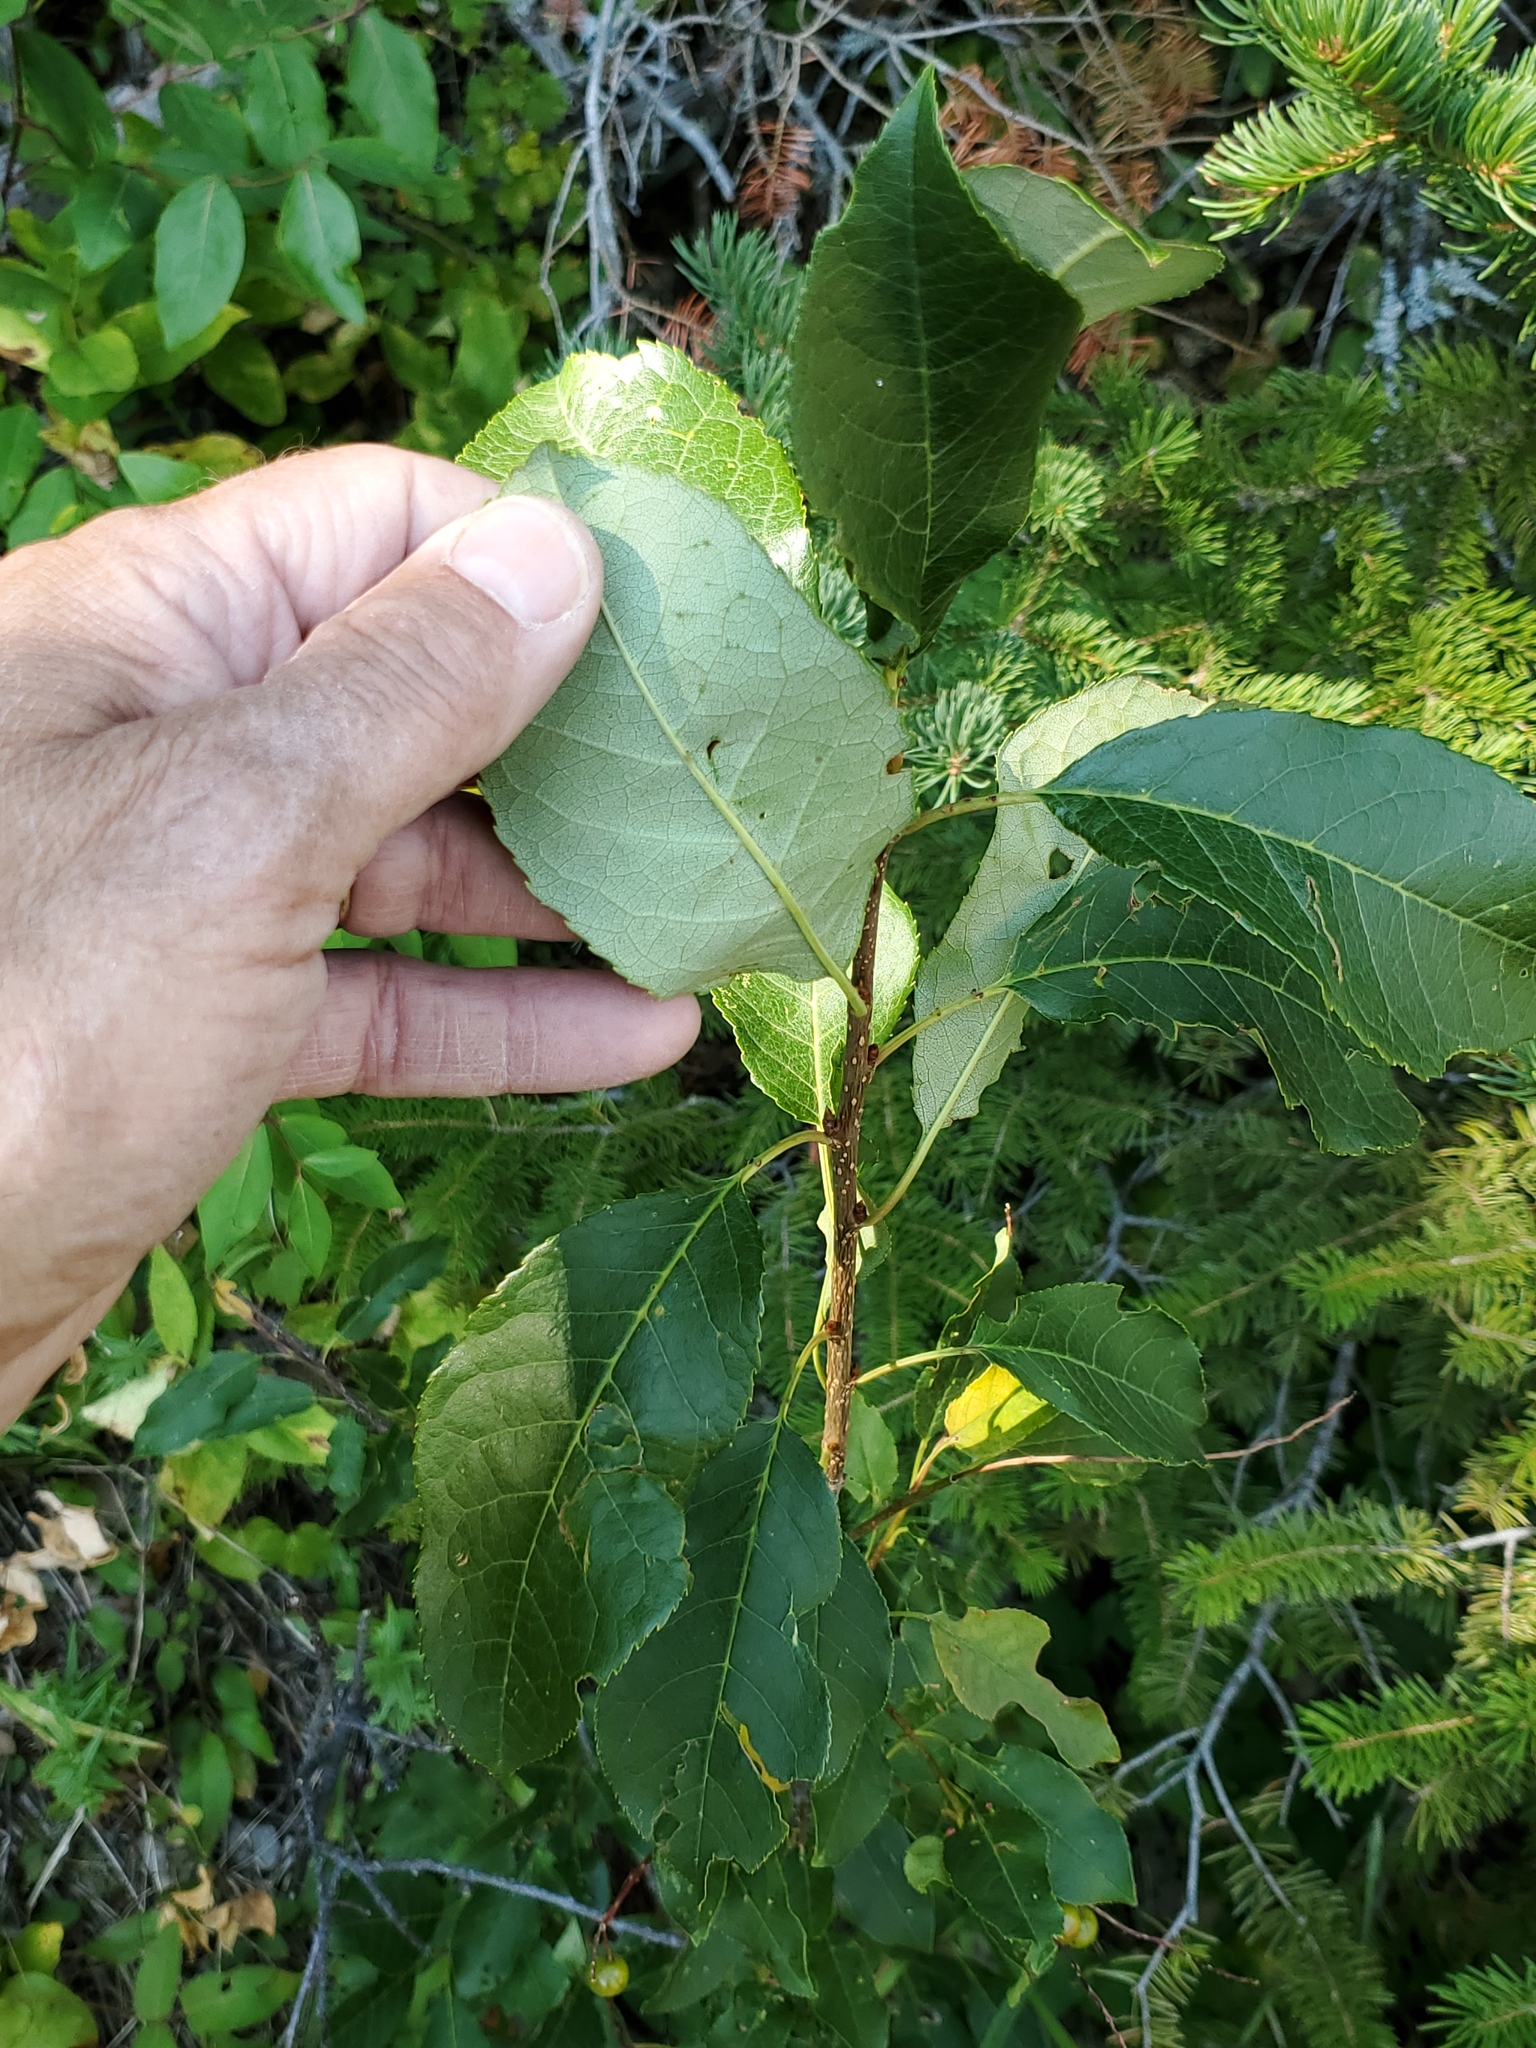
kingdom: Plantae
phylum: Tracheophyta
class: Magnoliopsida
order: Rosales
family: Rosaceae
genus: Prunus
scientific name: Prunus virginiana
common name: Chokecherry
